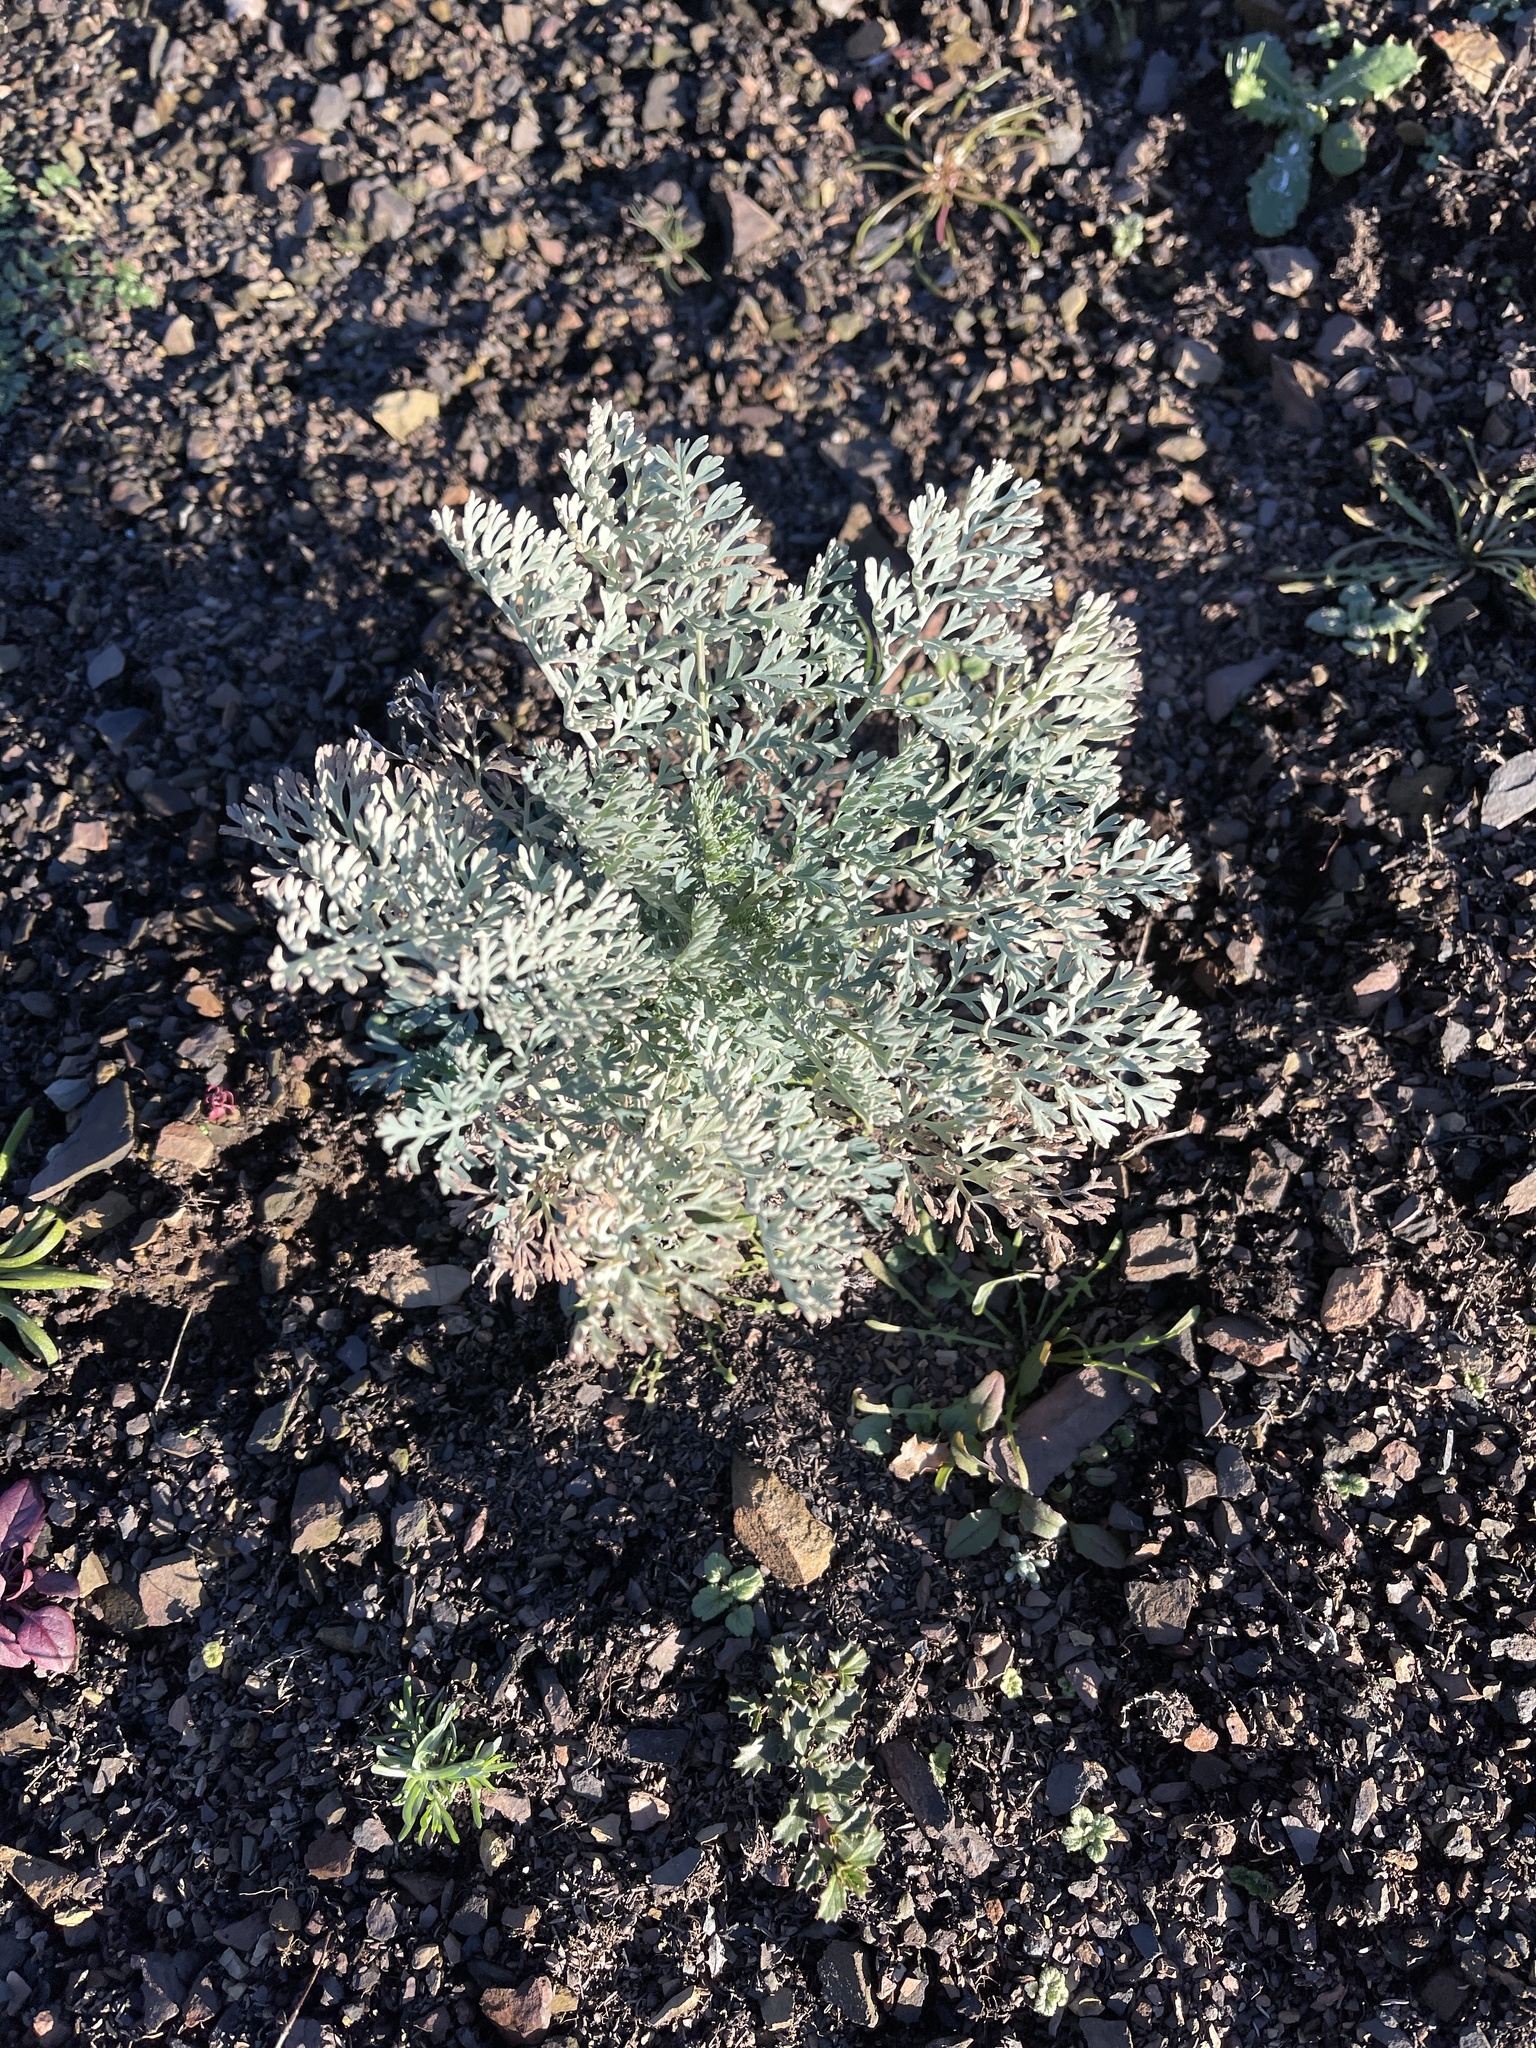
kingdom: Plantae
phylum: Tracheophyta
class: Magnoliopsida
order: Ranunculales
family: Papaveraceae
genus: Ehrendorferia
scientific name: Ehrendorferia chrysantha
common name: Golden eardrops
